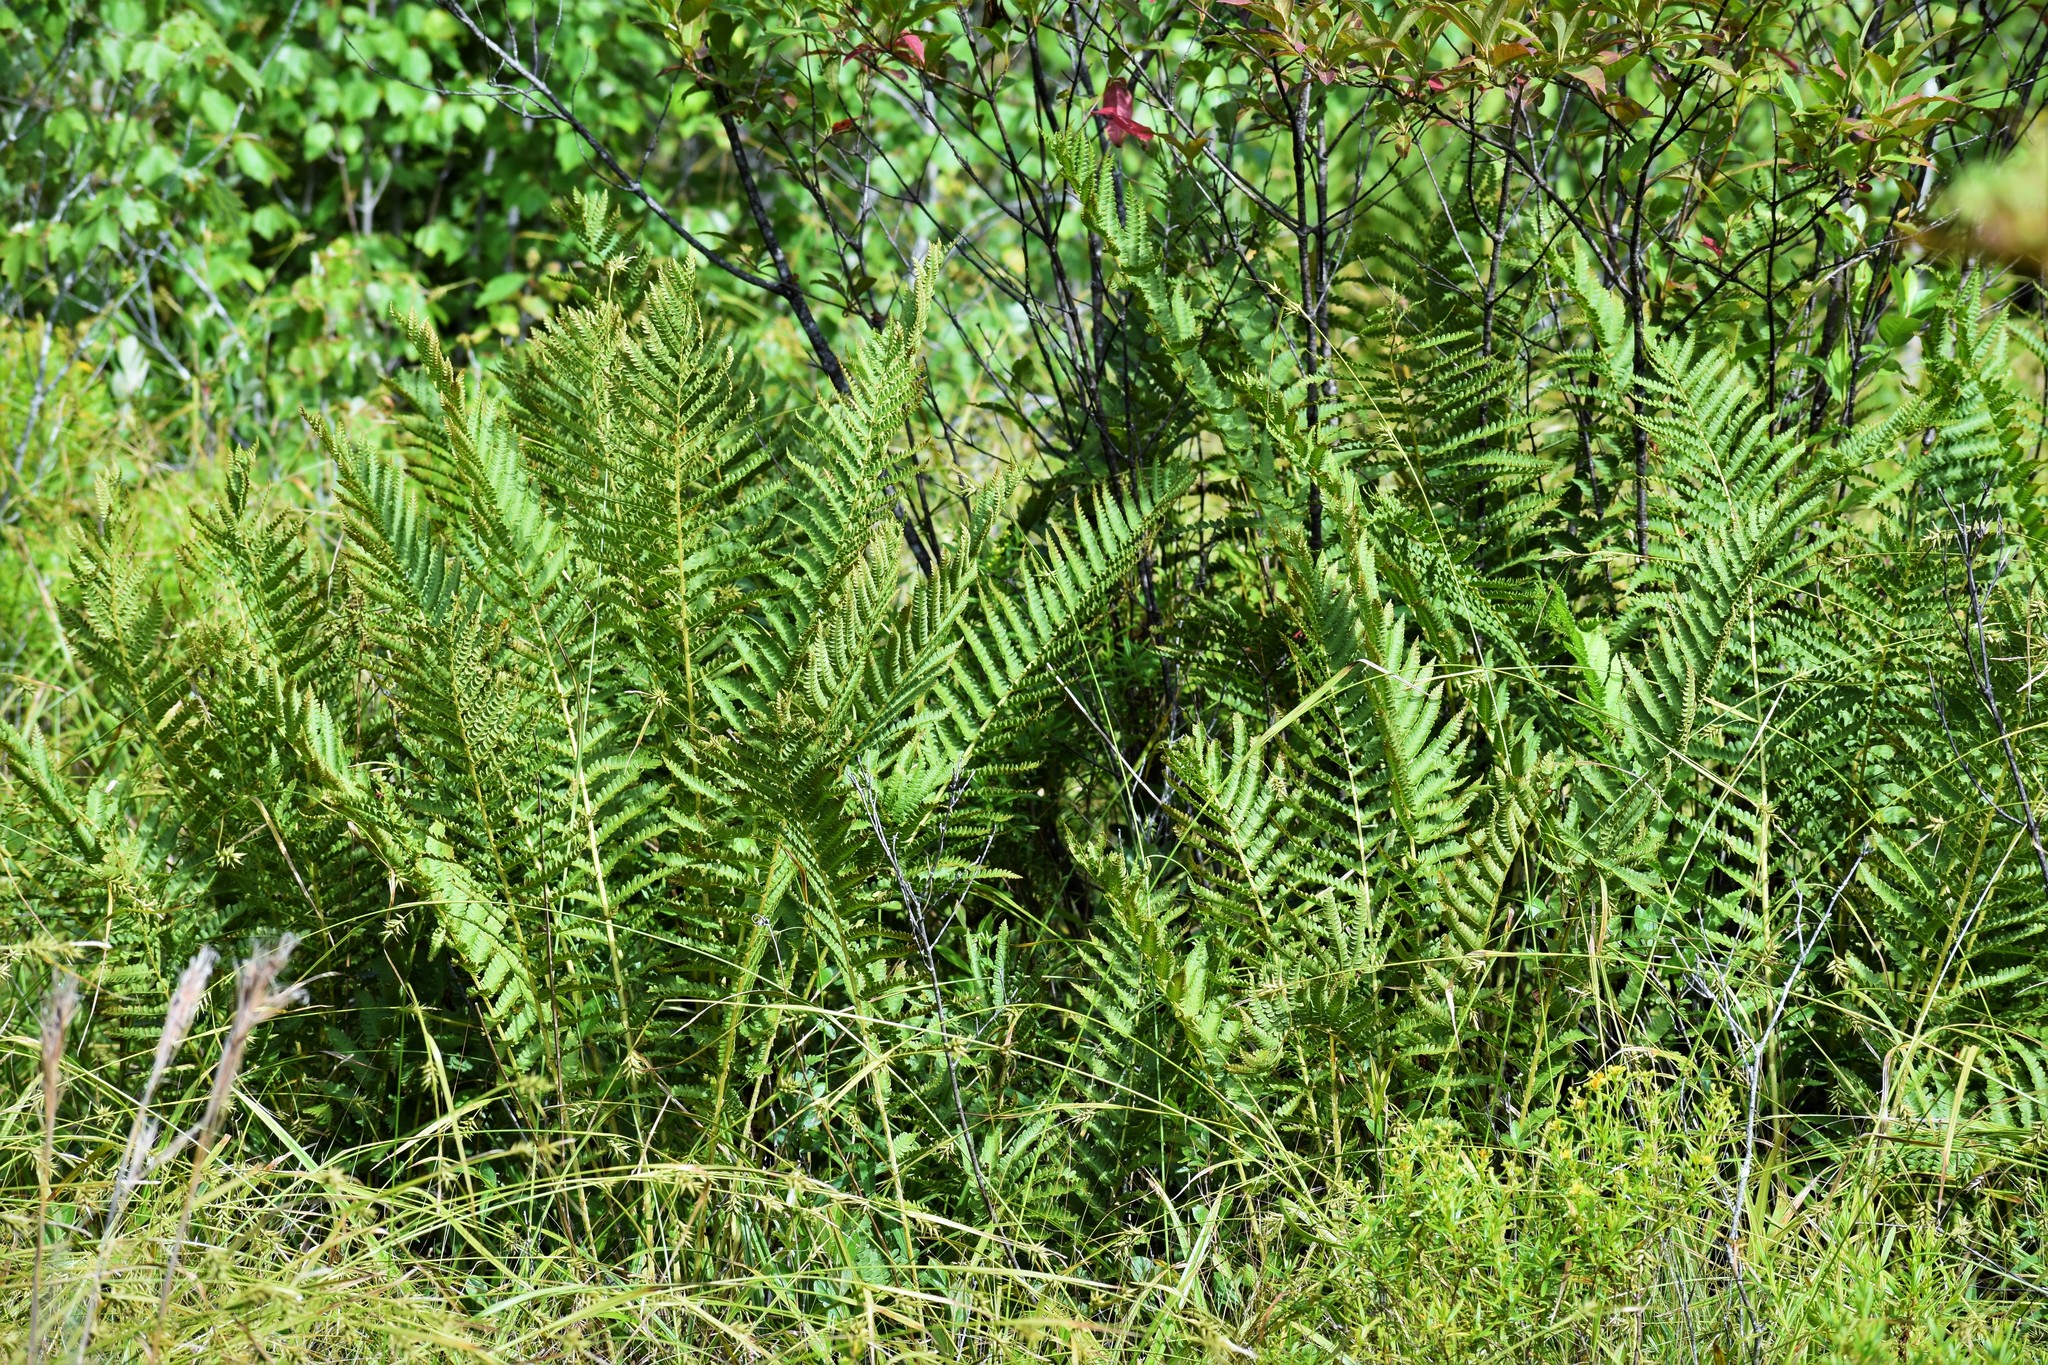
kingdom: Plantae
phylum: Tracheophyta
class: Polypodiopsida
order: Osmundales
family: Osmundaceae
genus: Osmundastrum
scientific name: Osmundastrum cinnamomeum
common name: Cinnamon fern
